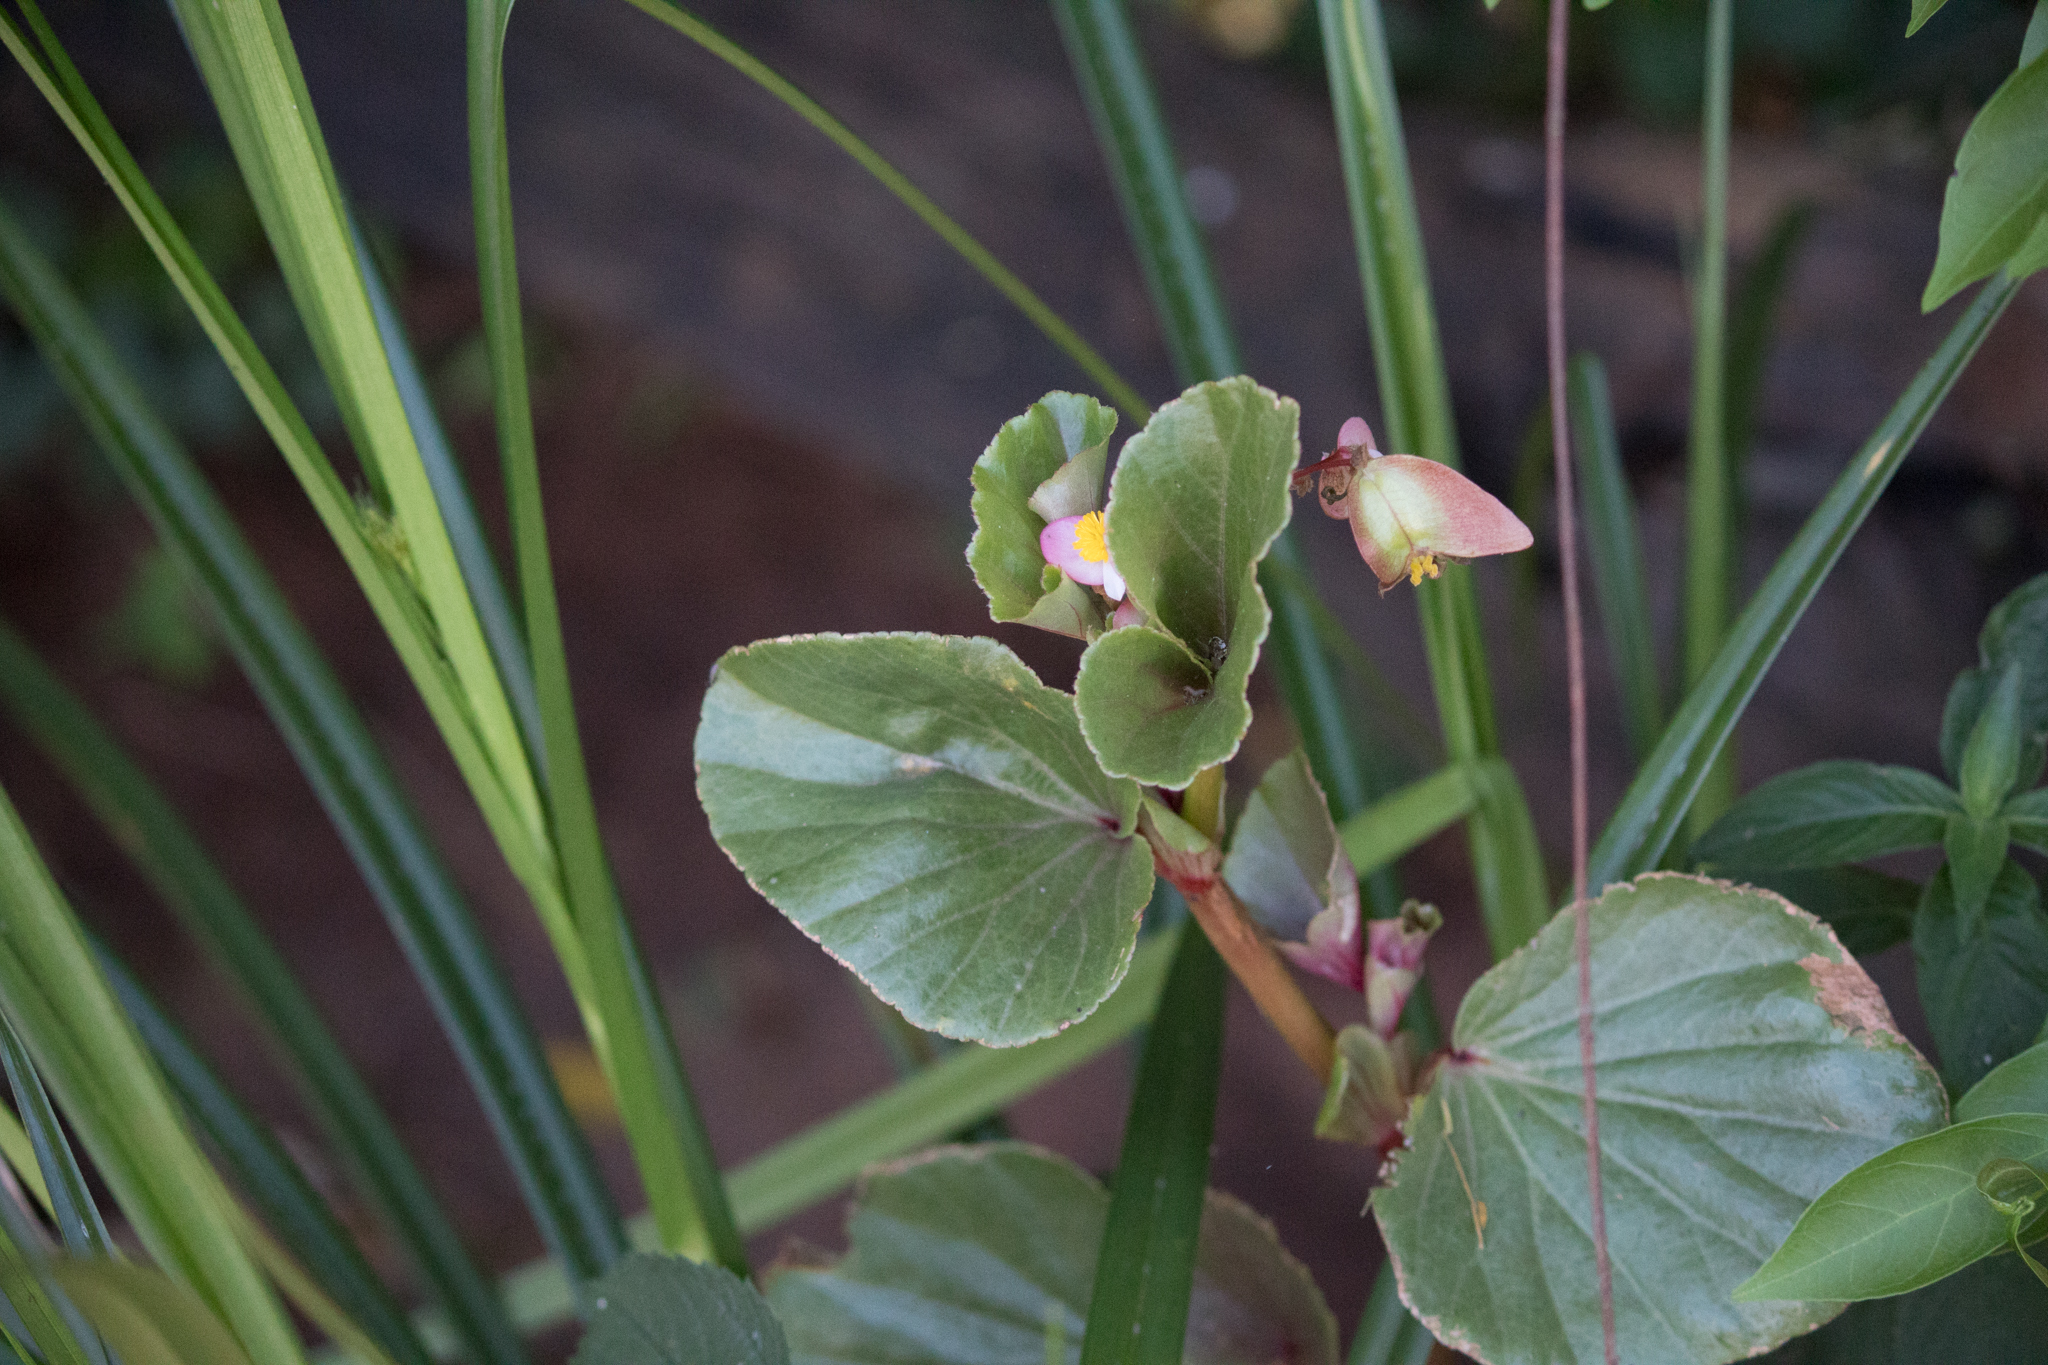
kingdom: Plantae
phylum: Tracheophyta
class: Magnoliopsida
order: Cucurbitales
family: Begoniaceae
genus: Begonia
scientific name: Begonia cucullata
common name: Clubbed begonia
